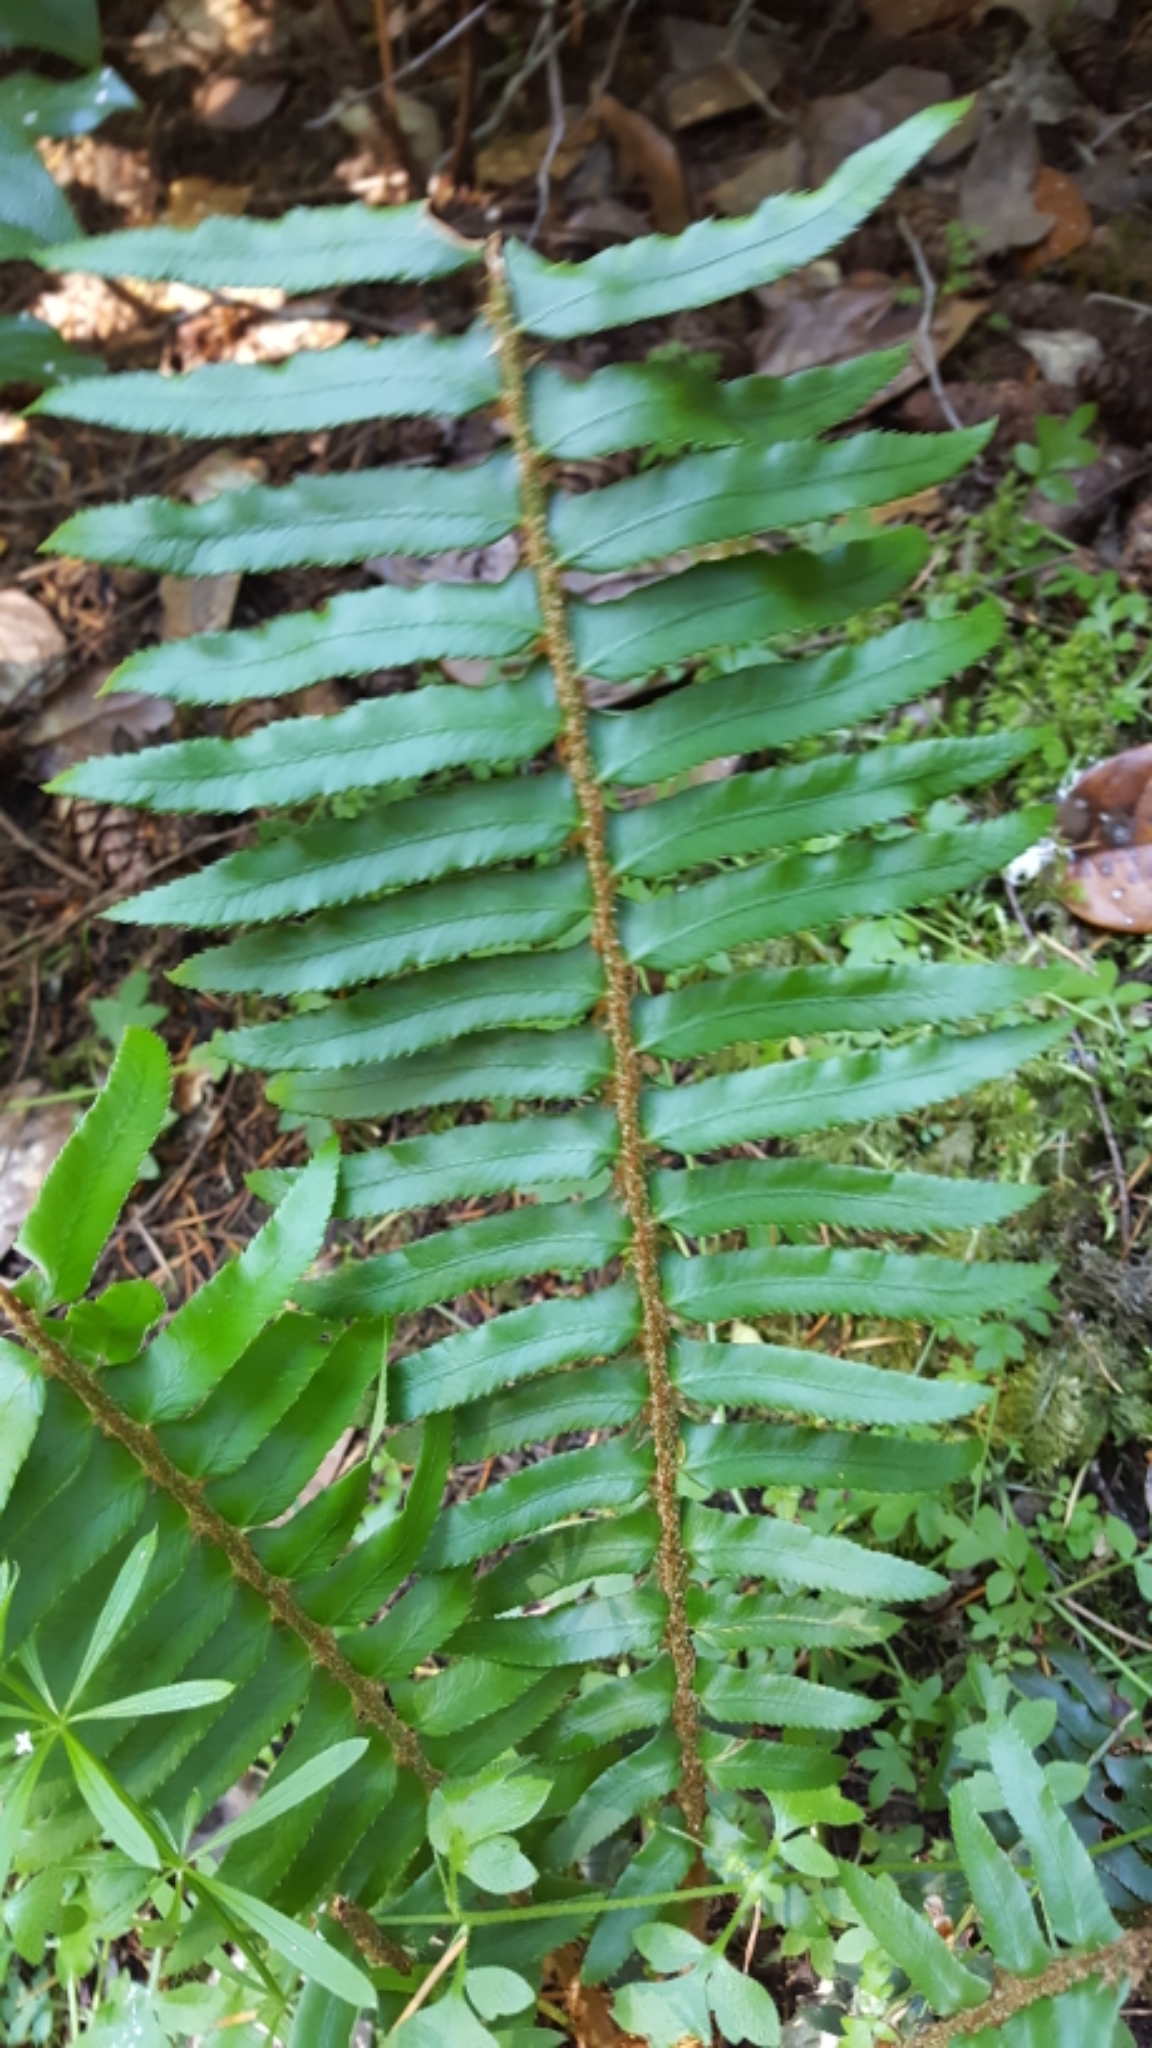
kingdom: Plantae
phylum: Tracheophyta
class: Polypodiopsida
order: Polypodiales
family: Dryopteridaceae
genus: Polystichum
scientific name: Polystichum munitum
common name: Western sword-fern
